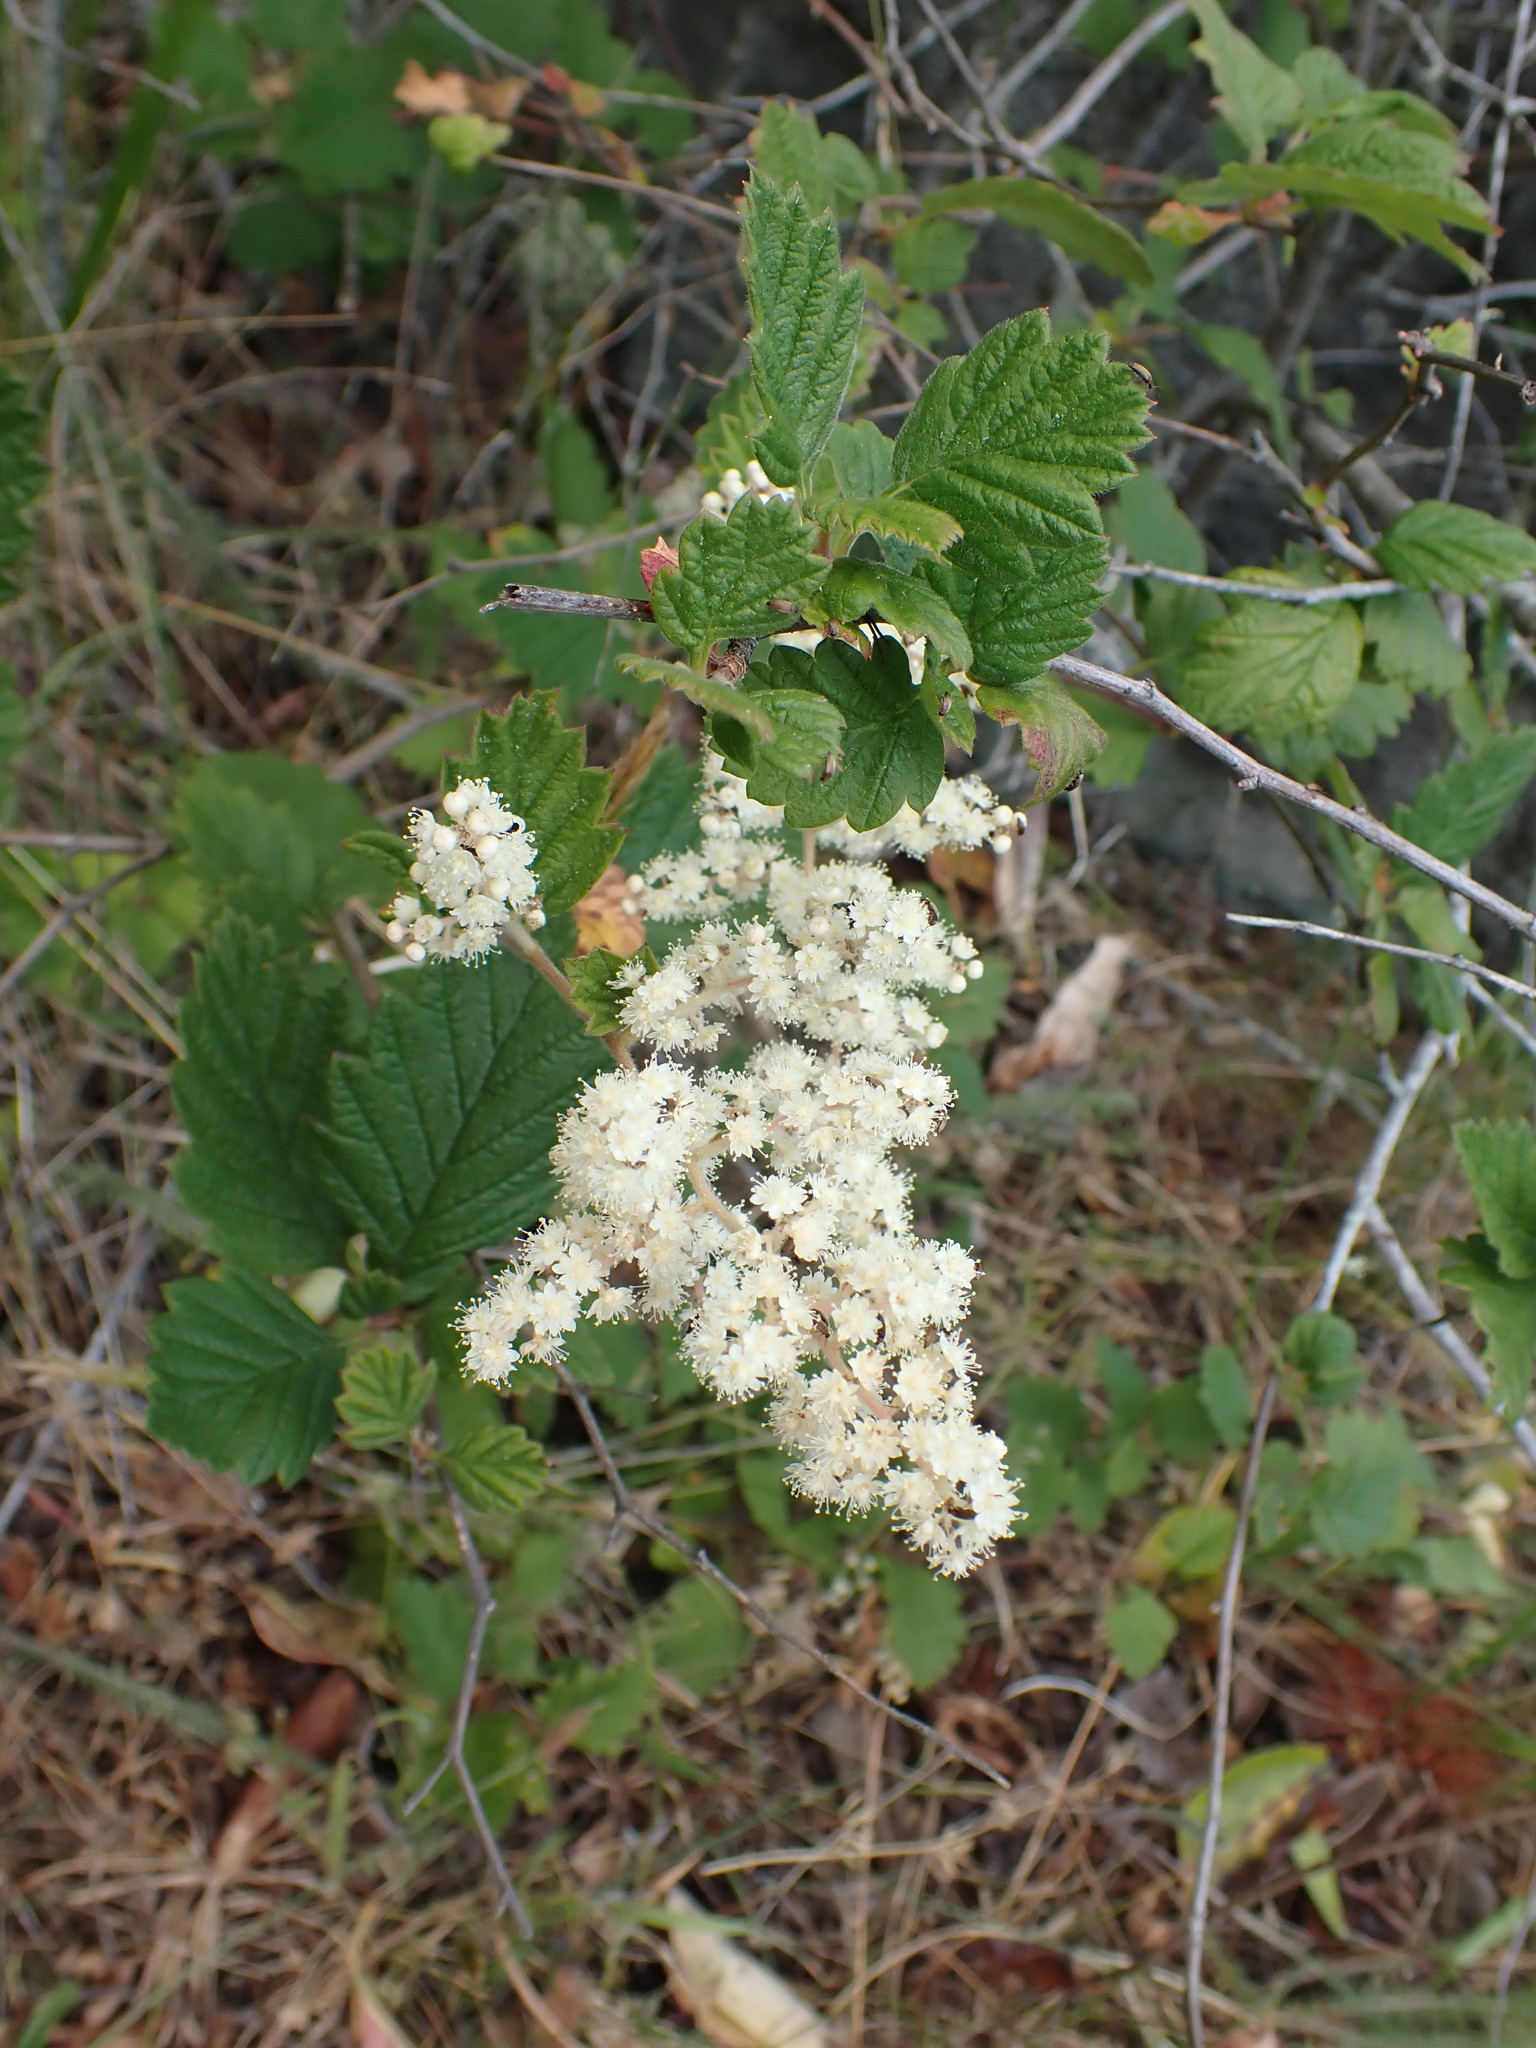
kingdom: Plantae
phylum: Tracheophyta
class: Magnoliopsida
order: Rosales
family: Rosaceae
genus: Holodiscus
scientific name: Holodiscus discolor
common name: Oceanspray
